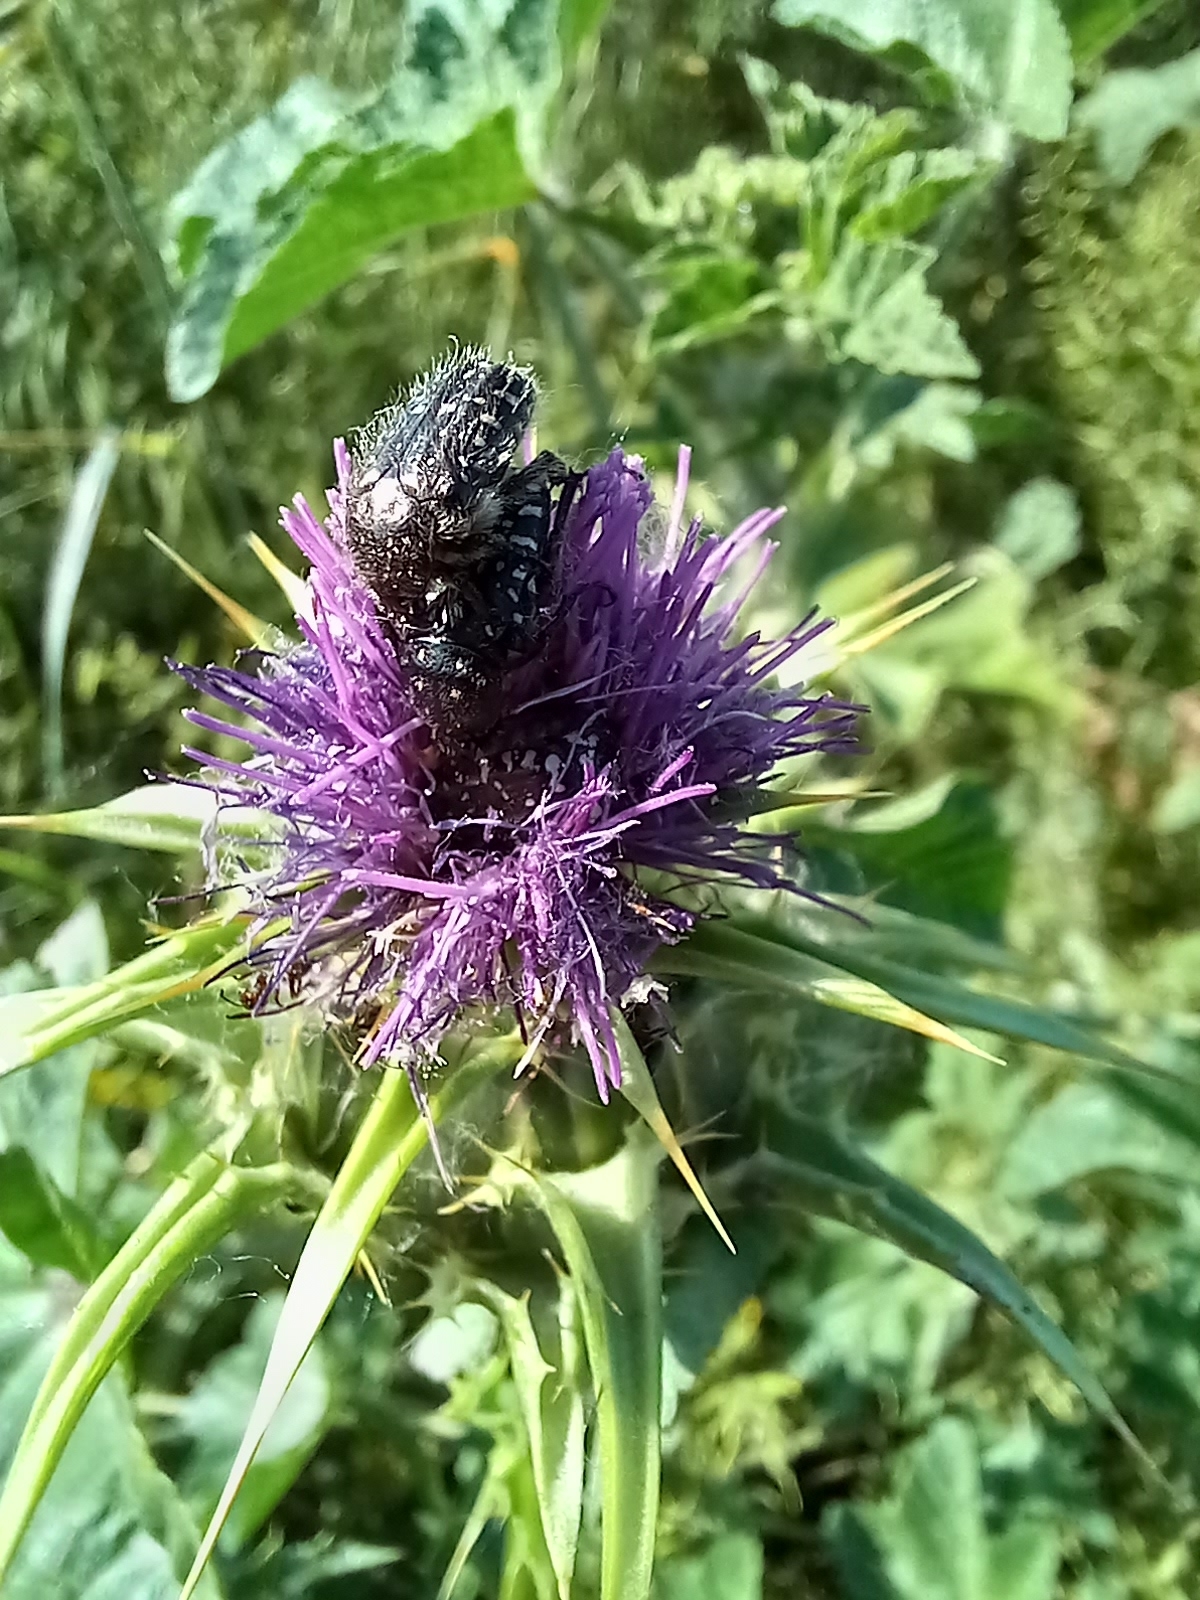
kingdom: Animalia
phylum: Arthropoda
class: Insecta
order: Coleoptera
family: Scarabaeidae
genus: Oxythyrea
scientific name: Oxythyrea funesta
